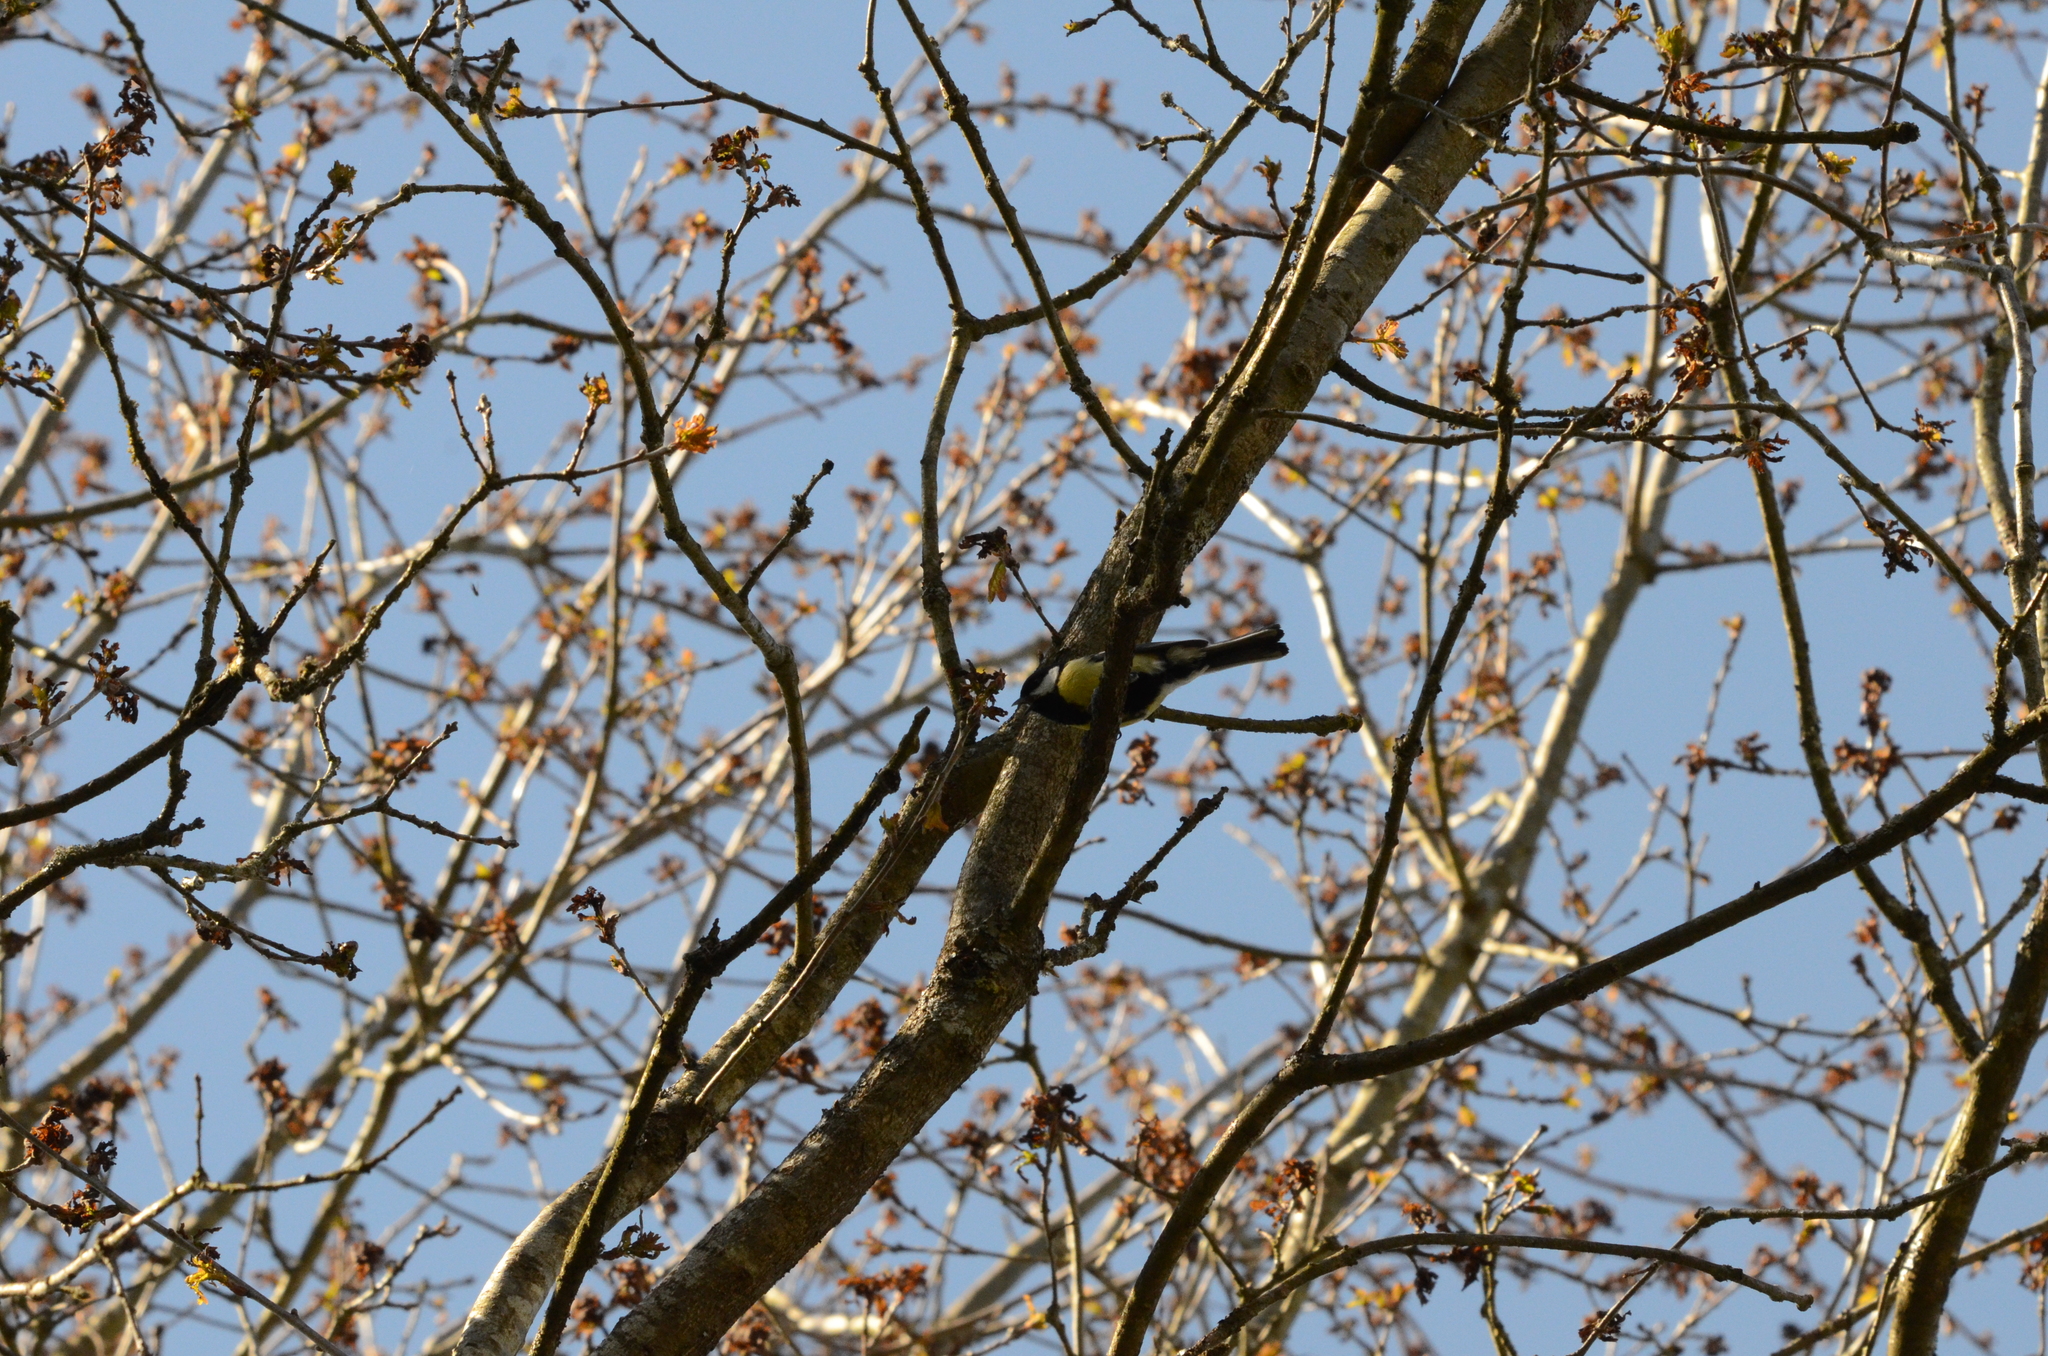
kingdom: Animalia
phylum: Chordata
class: Aves
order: Passeriformes
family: Paridae
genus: Parus
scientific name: Parus major
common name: Great tit
